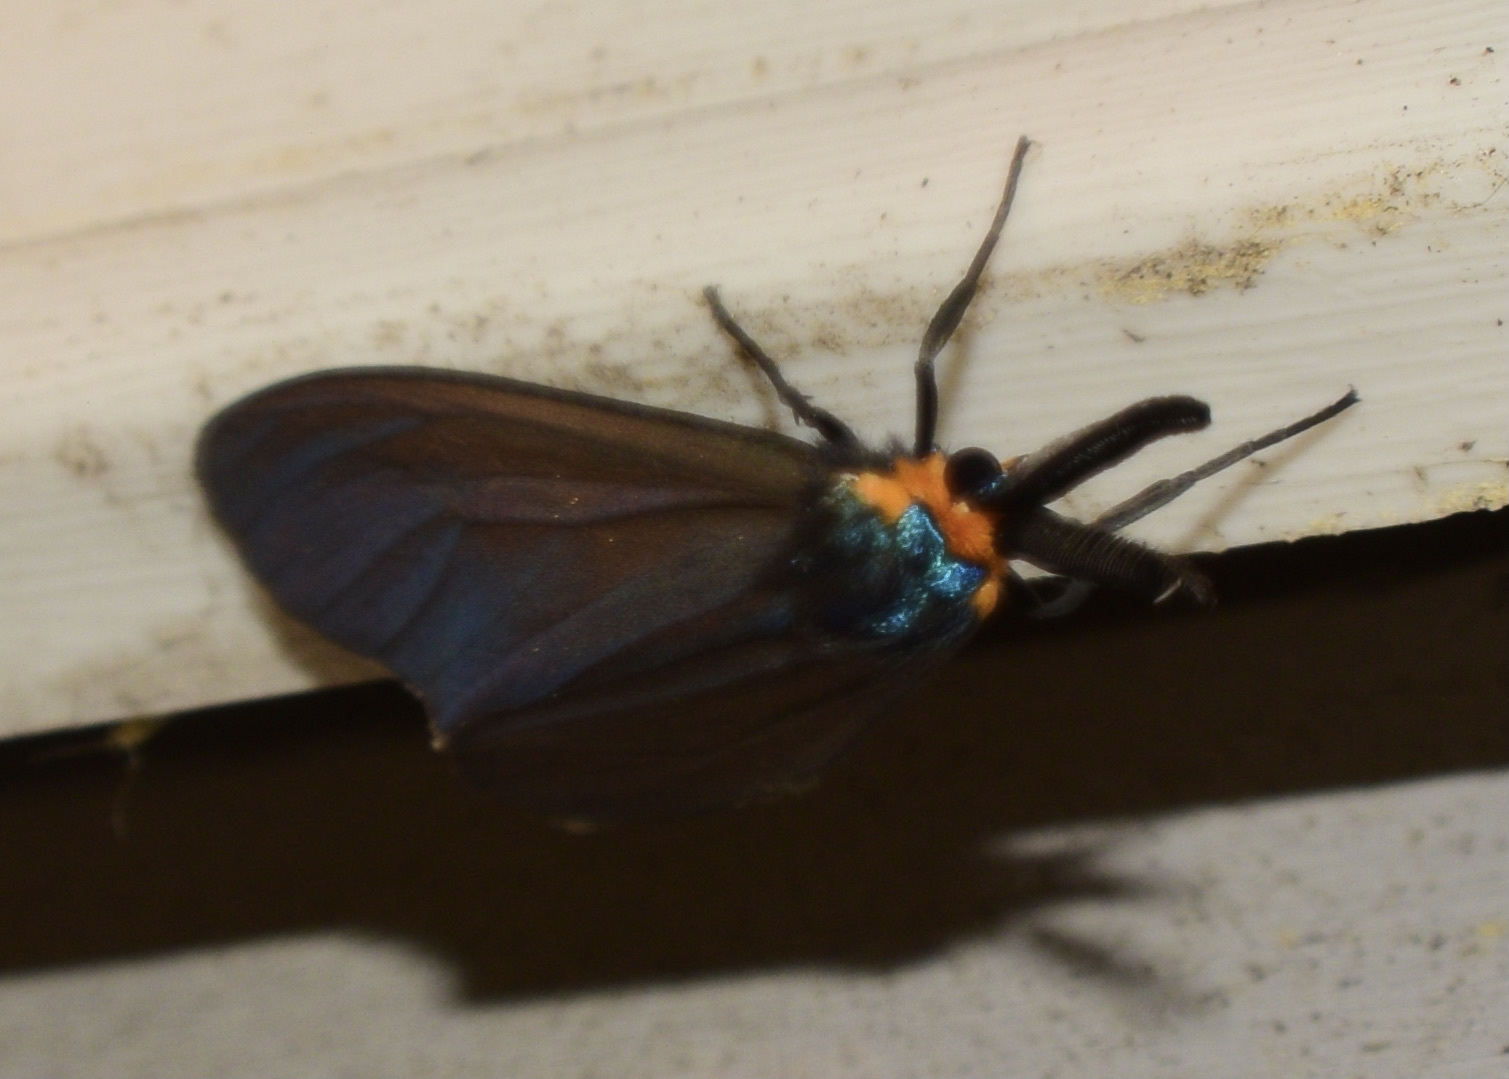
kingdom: Animalia
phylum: Arthropoda
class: Insecta
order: Lepidoptera
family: Erebidae
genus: Ctenucha
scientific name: Ctenucha virginica
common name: Virginia ctenucha moth
